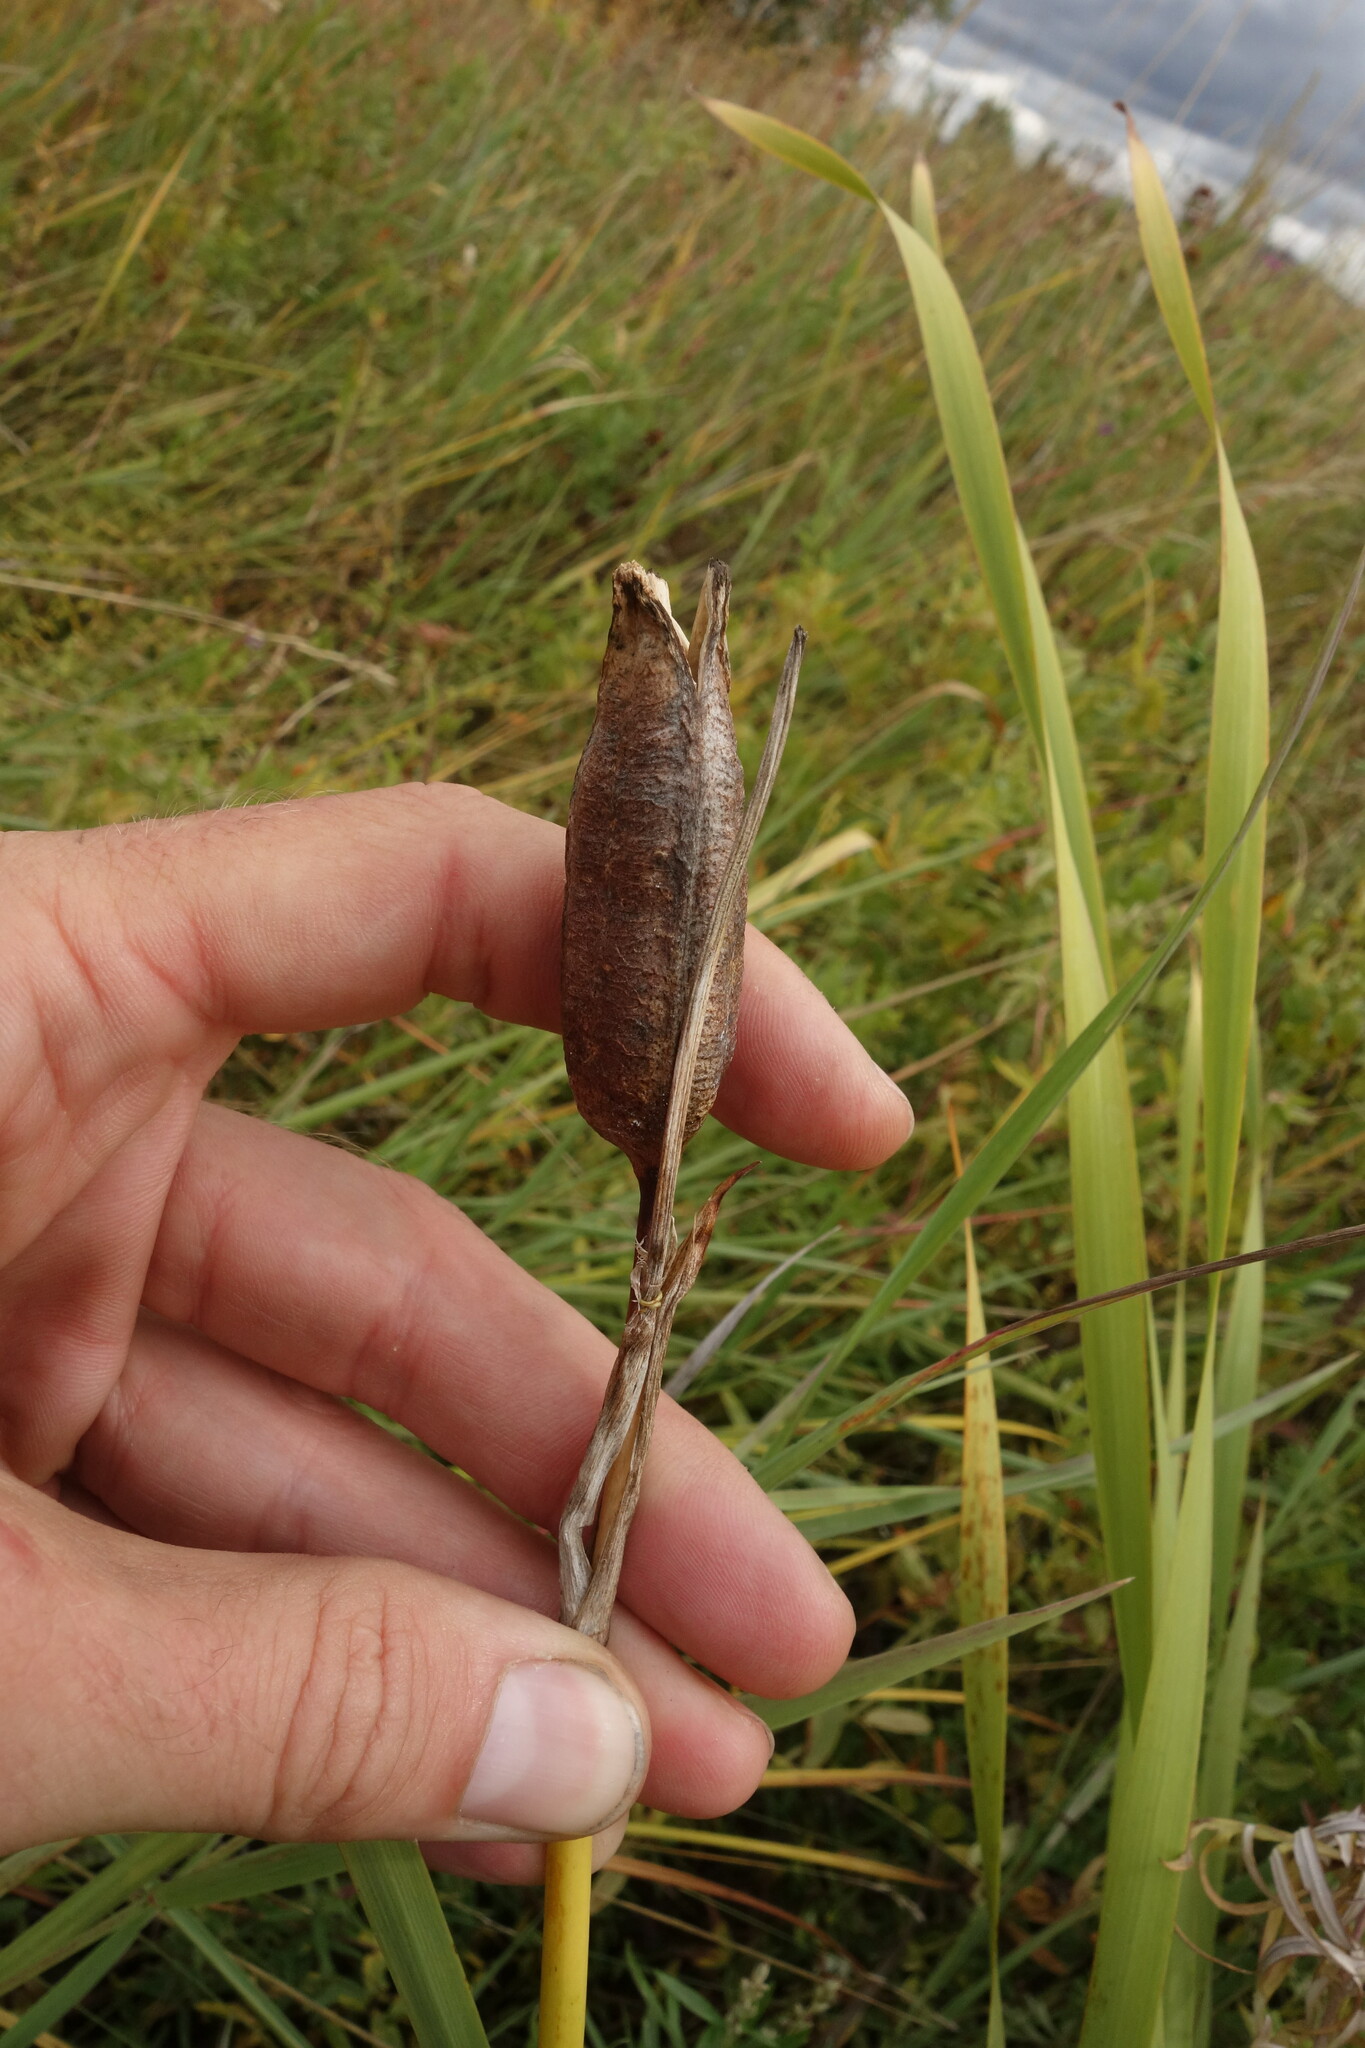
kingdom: Plantae
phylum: Tracheophyta
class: Liliopsida
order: Asparagales
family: Iridaceae
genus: Iris
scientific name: Iris sanguinea
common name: Blood iris
